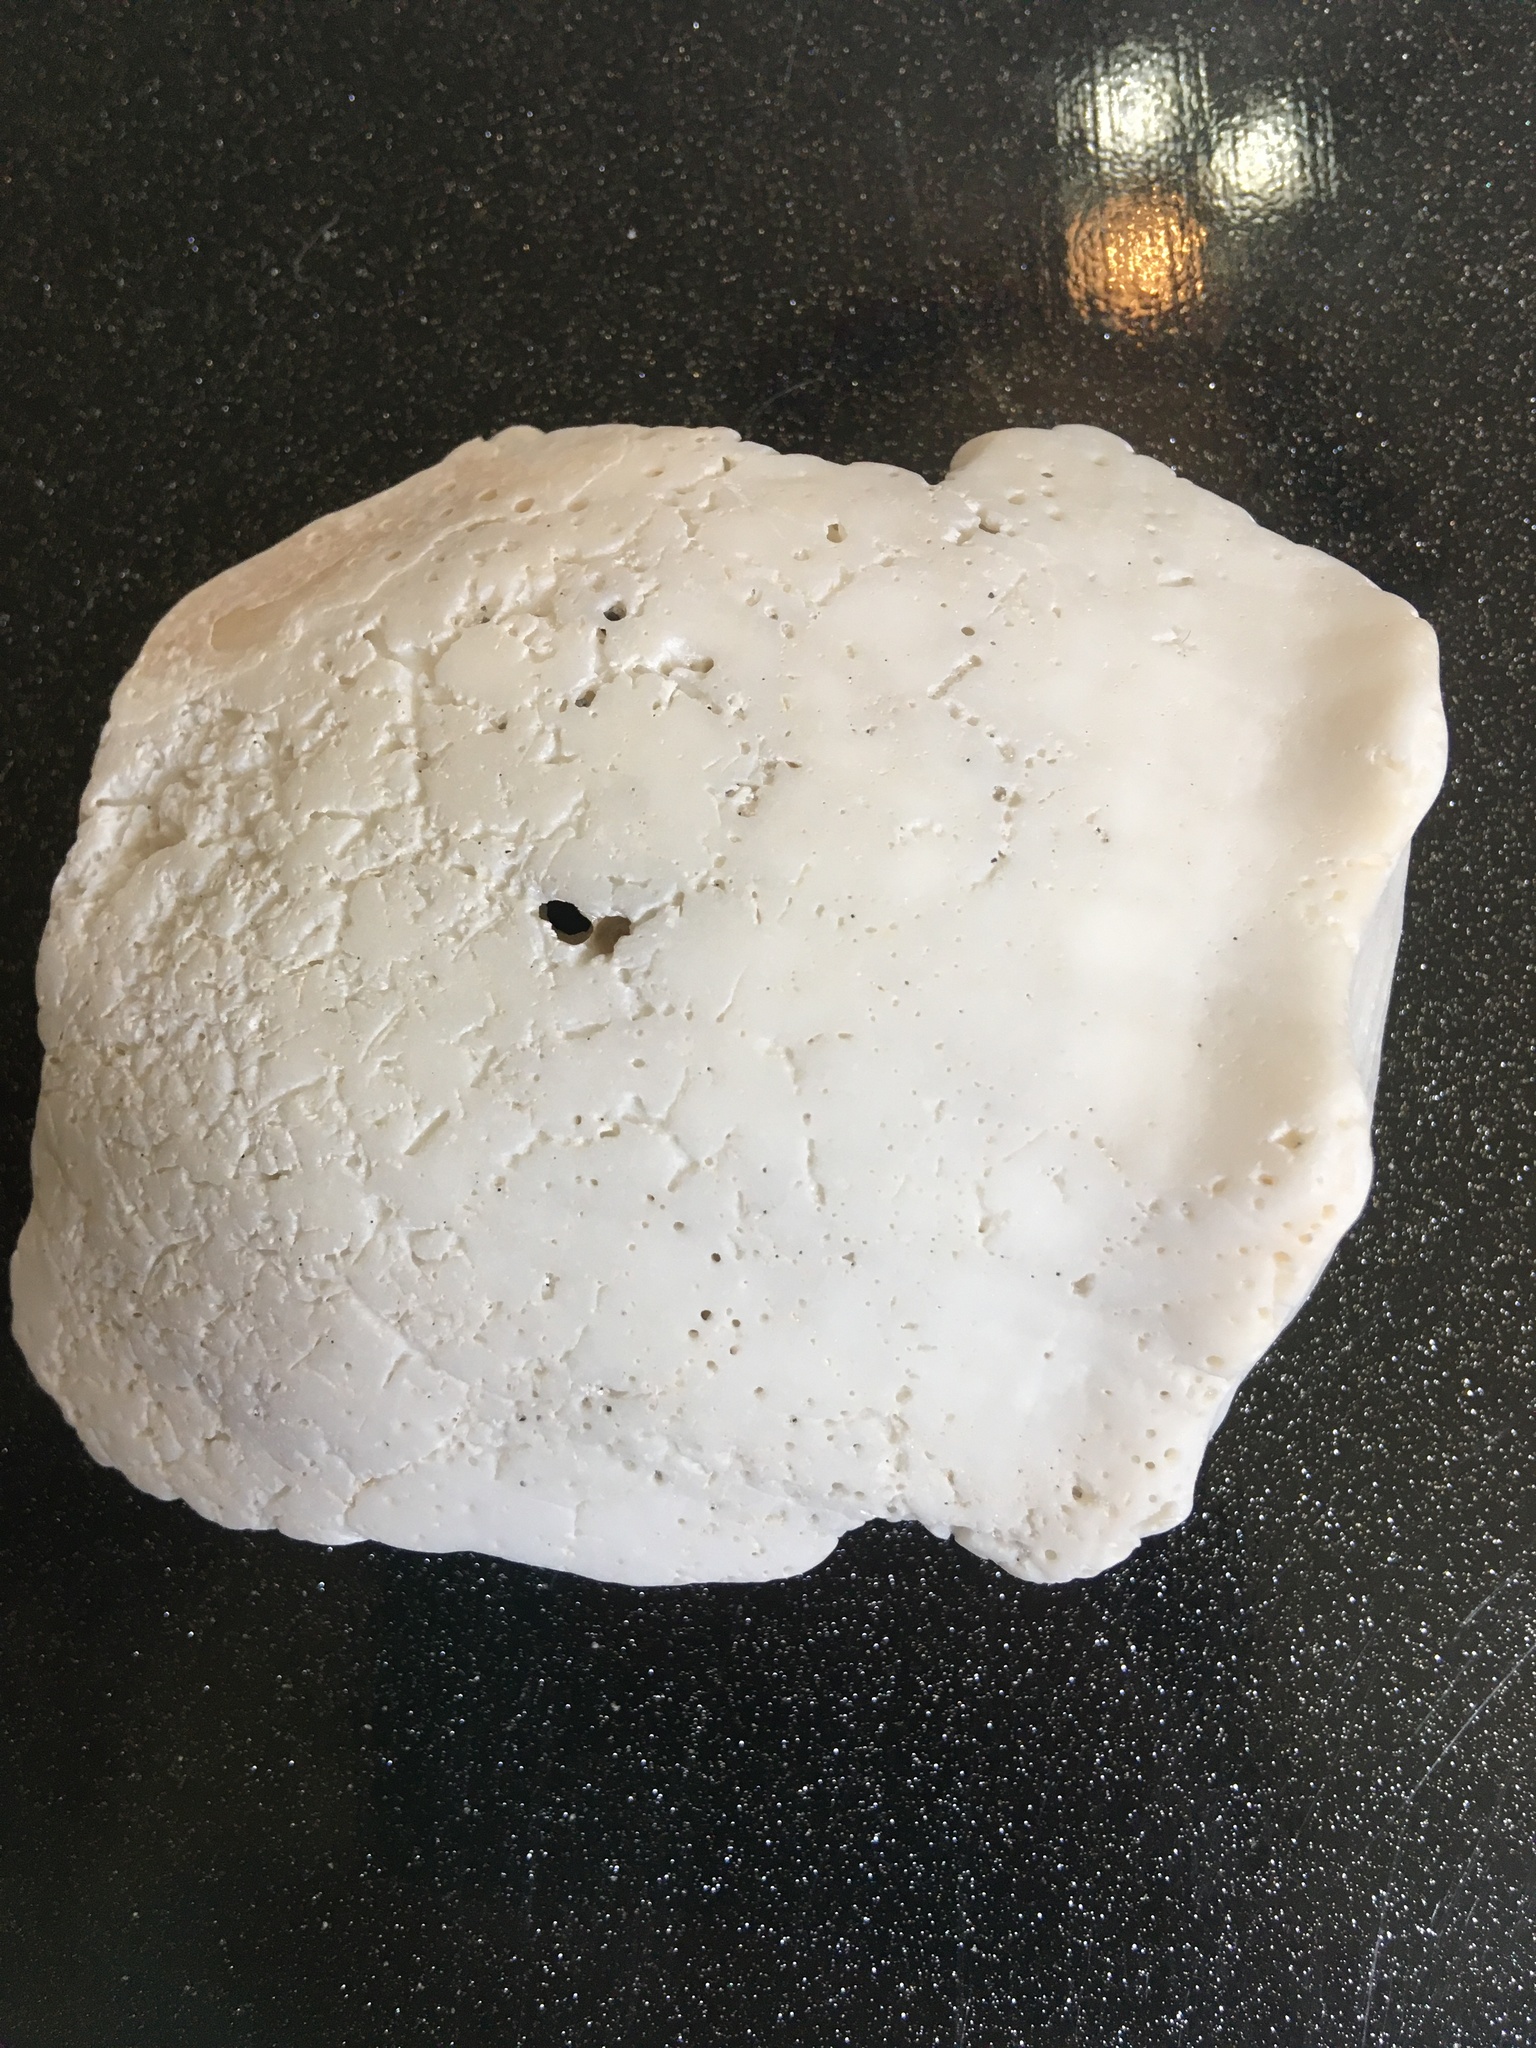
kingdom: Animalia
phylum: Mollusca
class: Gastropoda
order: Neogastropoda
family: Busyconidae
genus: Sinistrofulgur
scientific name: Sinistrofulgur sinistrum
